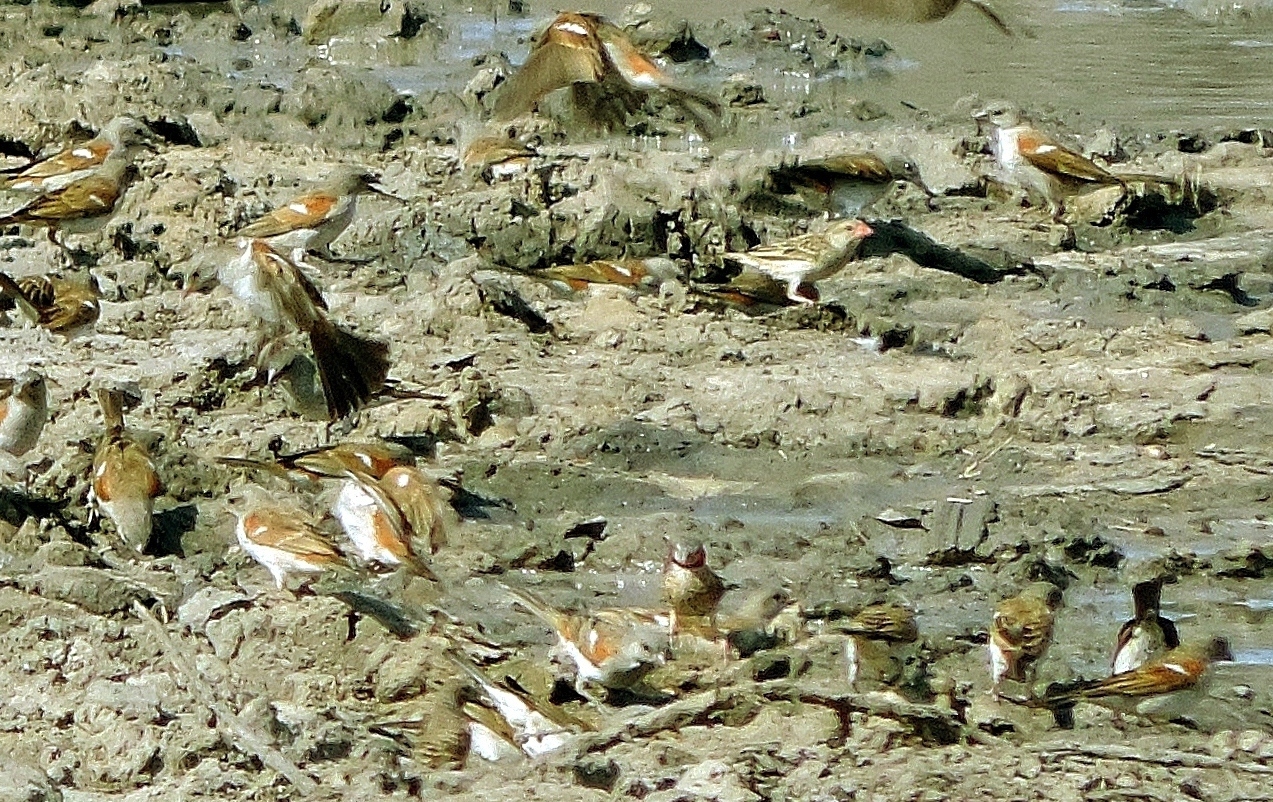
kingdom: Animalia
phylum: Chordata
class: Aves
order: Passeriformes
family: Estrildidae
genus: Amadina
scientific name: Amadina fasciata
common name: Cut-throat finch
